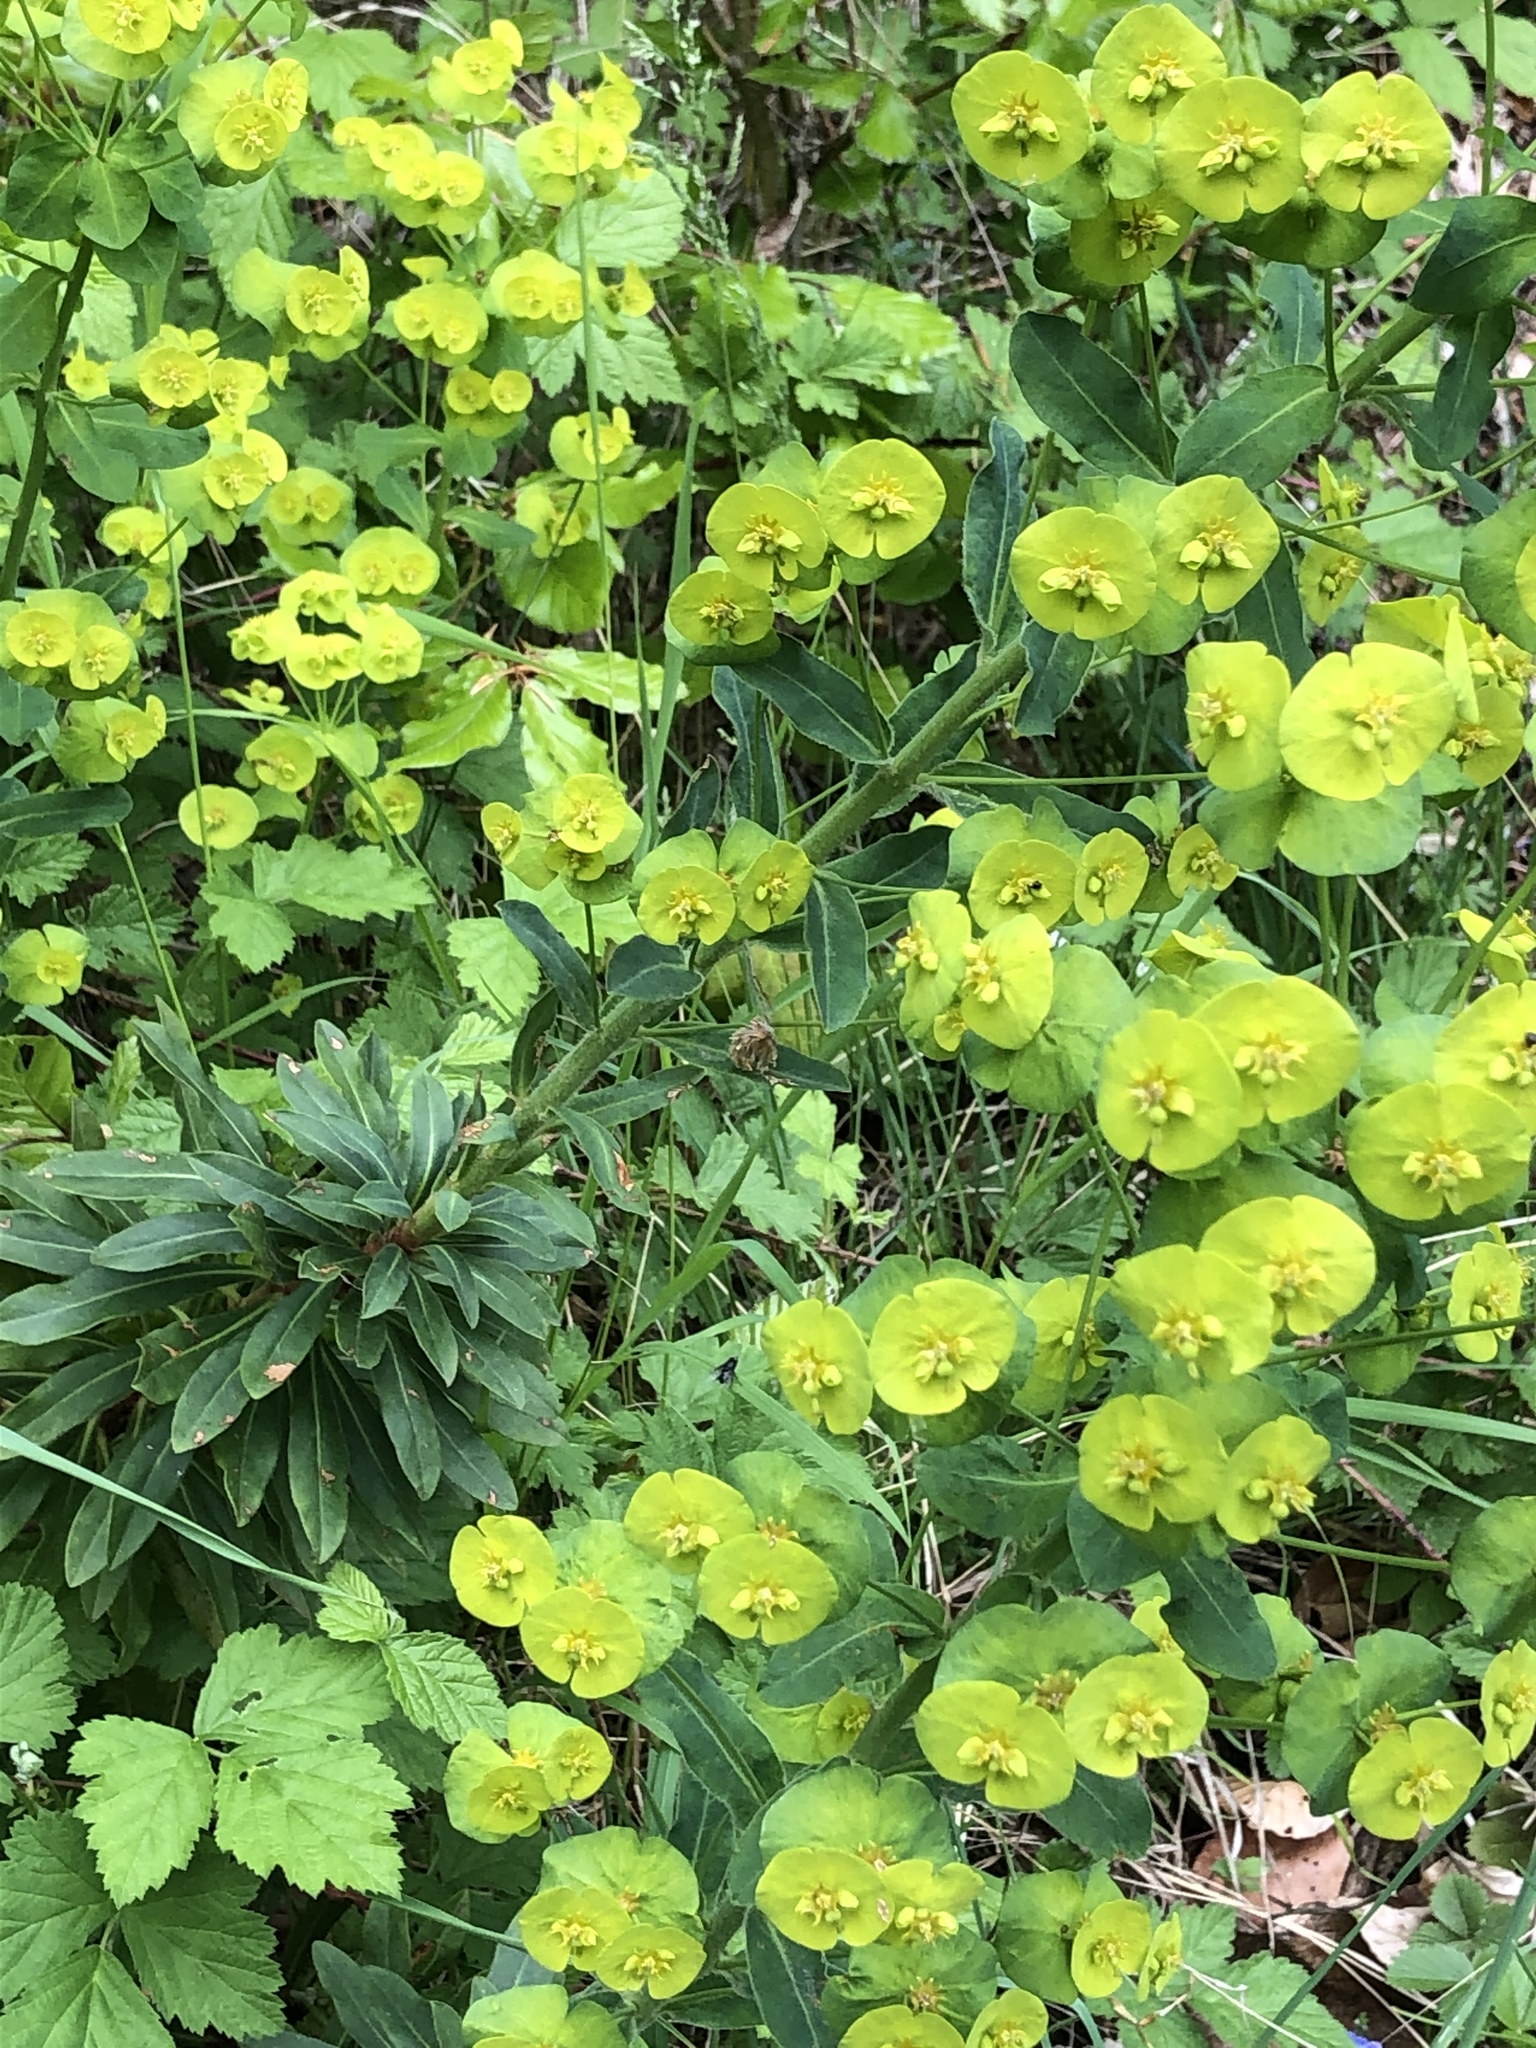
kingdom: Plantae
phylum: Tracheophyta
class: Magnoliopsida
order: Malpighiales
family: Euphorbiaceae
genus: Euphorbia
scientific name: Euphorbia amygdaloides
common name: Wood spurge
